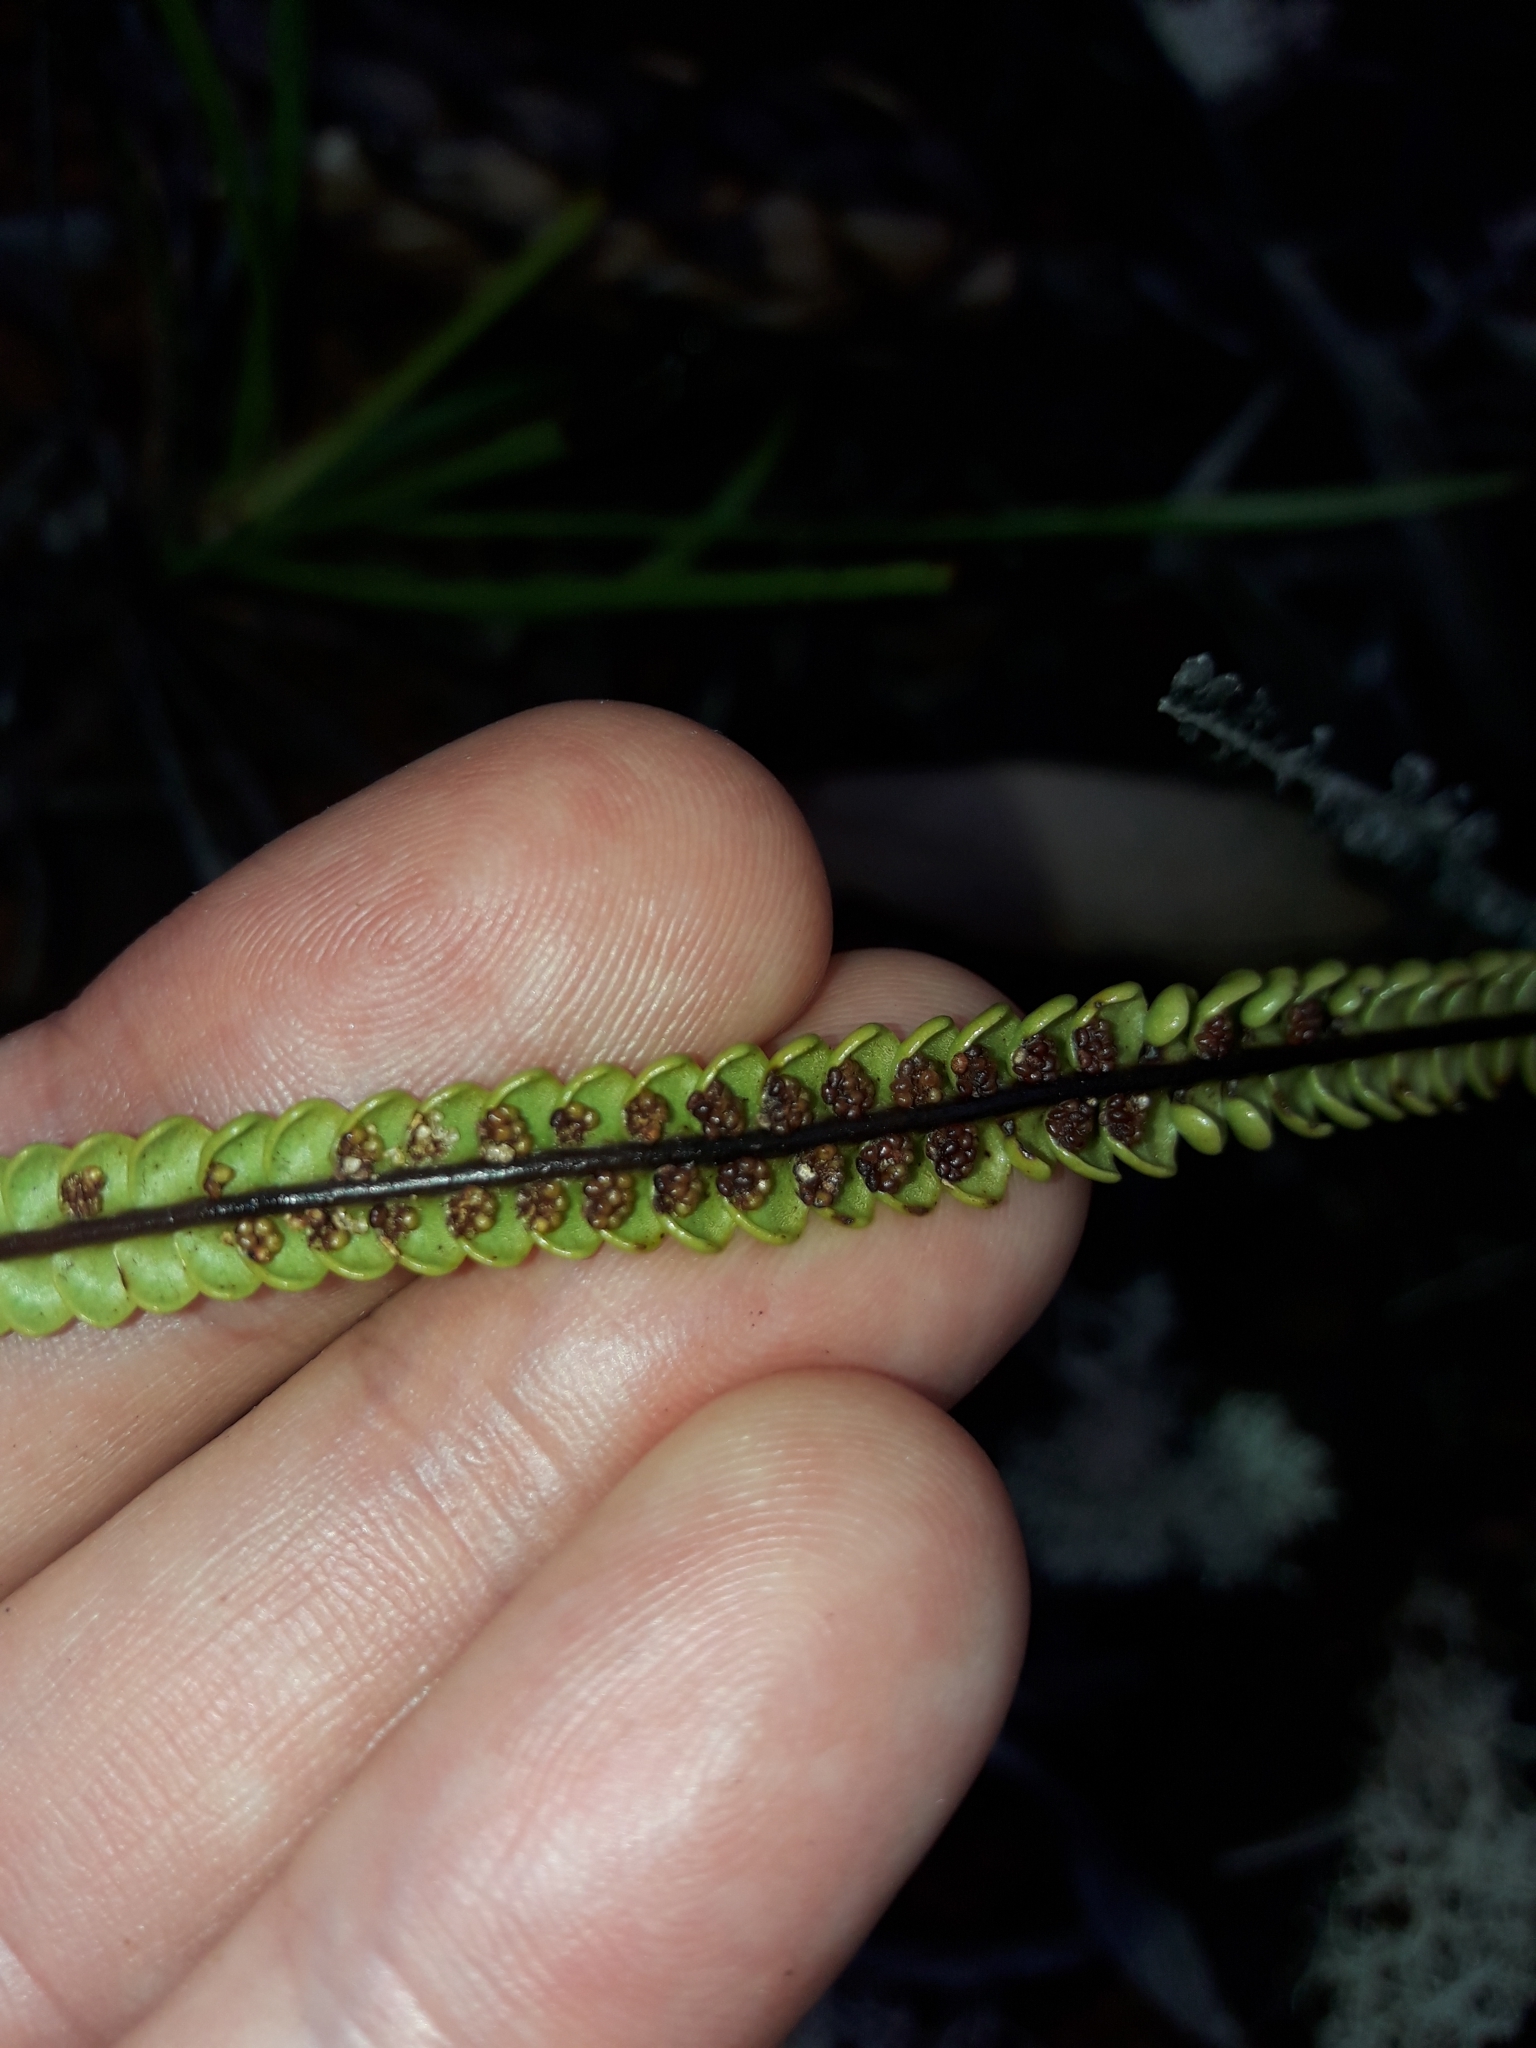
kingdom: Plantae
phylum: Tracheophyta
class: Polypodiopsida
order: Gleicheniales
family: Gleicheniaceae
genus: Stromatopteris
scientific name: Stromatopteris moniliformis
